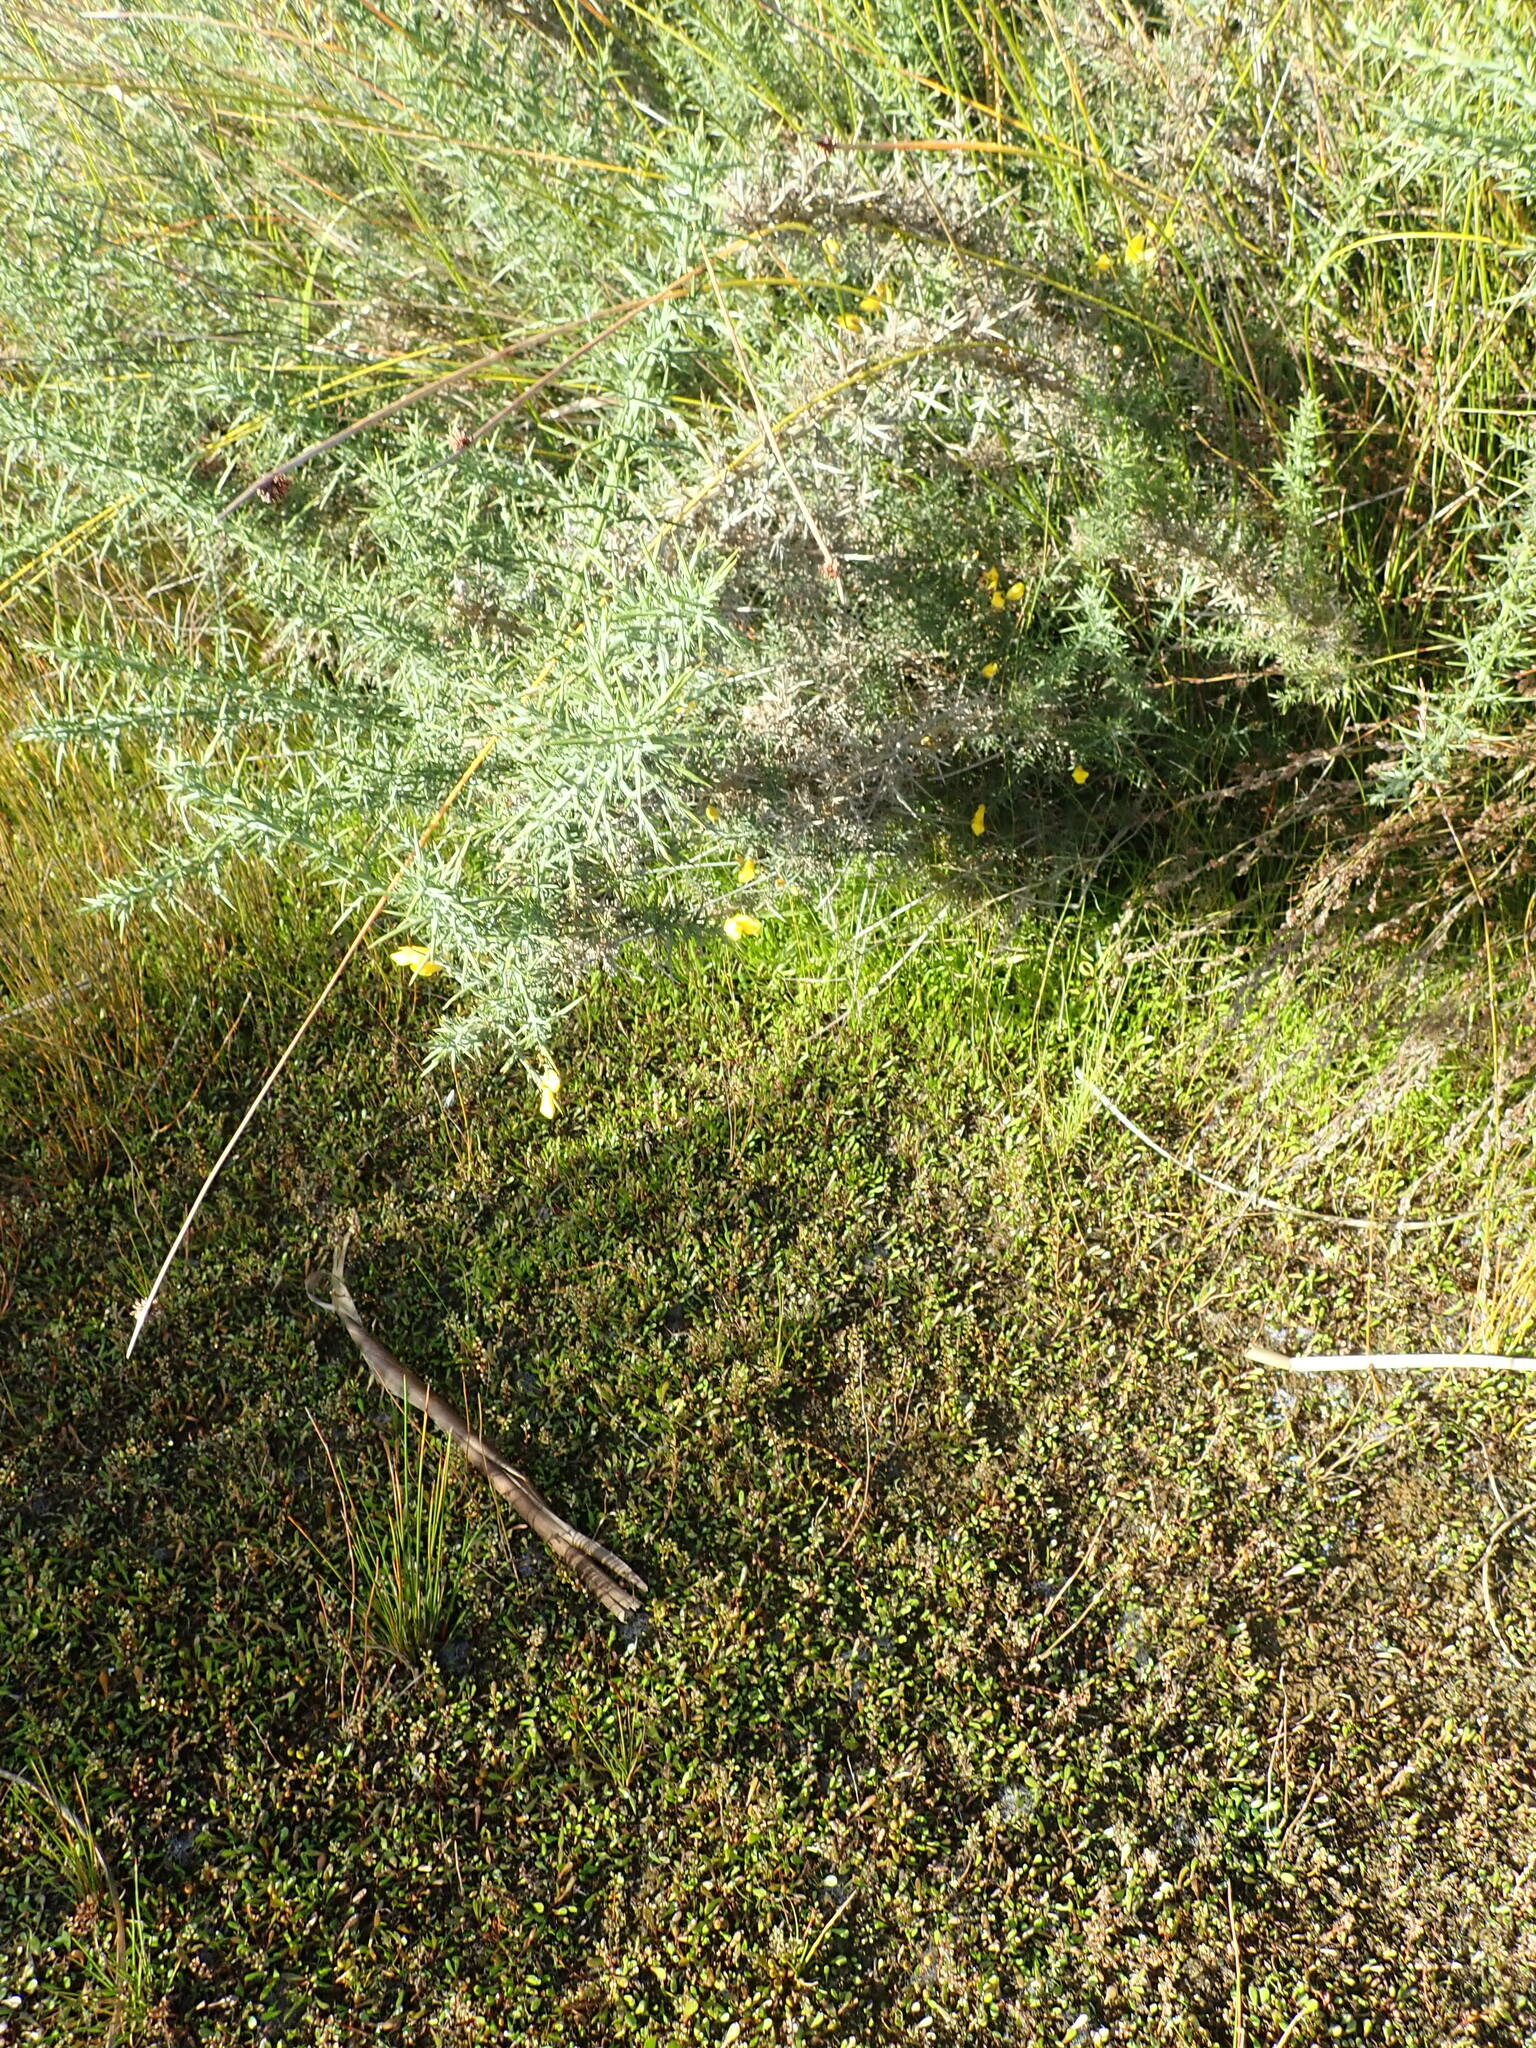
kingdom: Plantae
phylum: Tracheophyta
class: Magnoliopsida
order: Fabales
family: Fabaceae
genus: Ulex
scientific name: Ulex europaeus
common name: Common gorse
